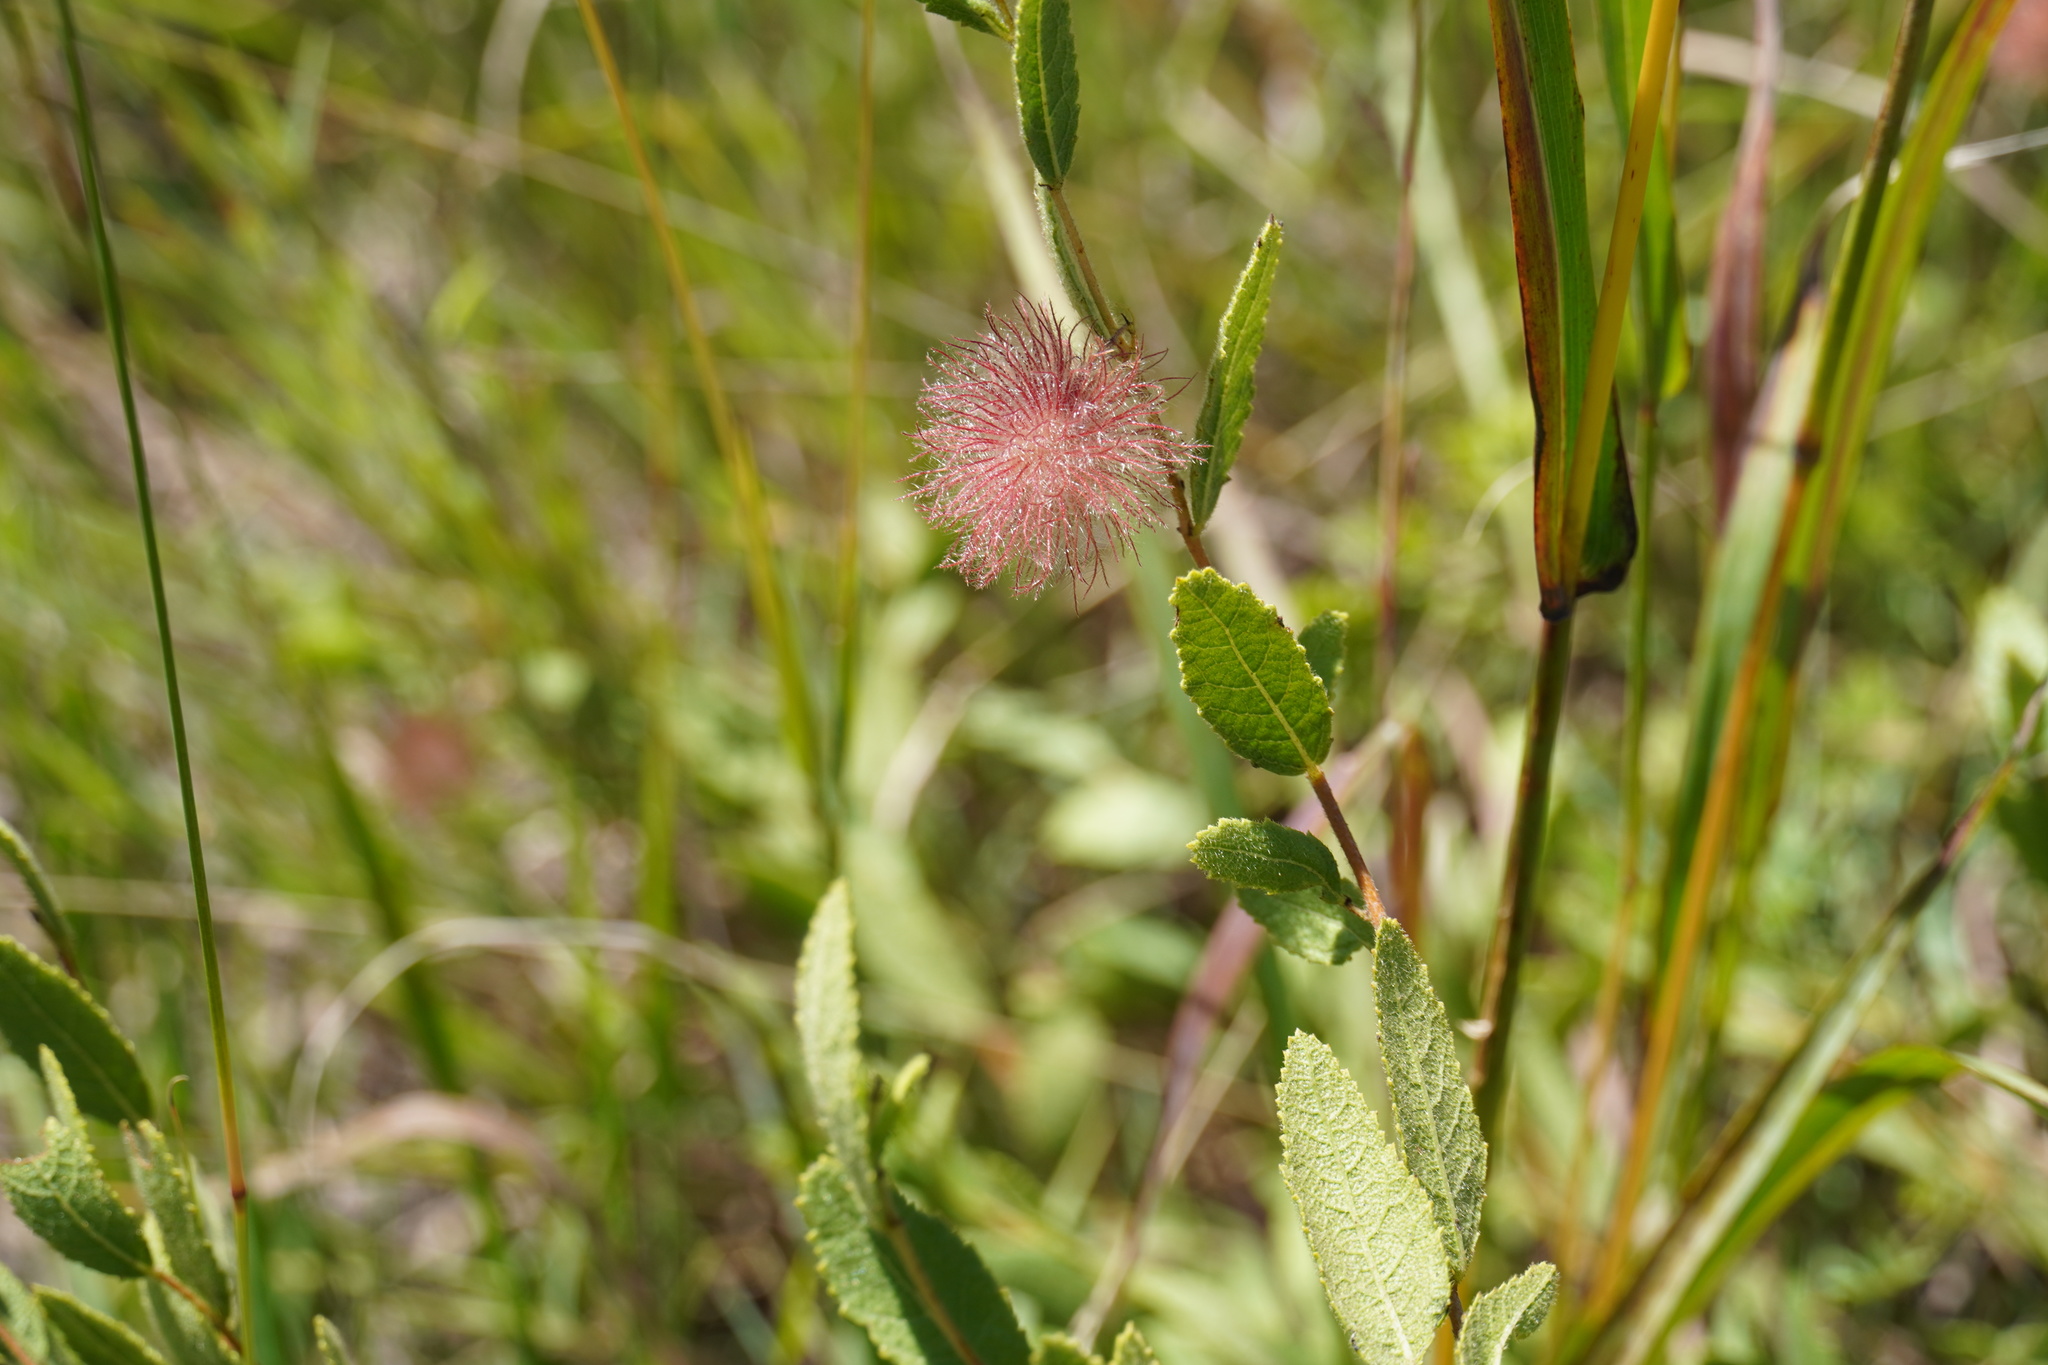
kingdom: Plantae
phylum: Tracheophyta
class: Magnoliopsida
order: Malvales
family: Malvaceae
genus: Triumfetta
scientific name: Triumfetta sonderi
